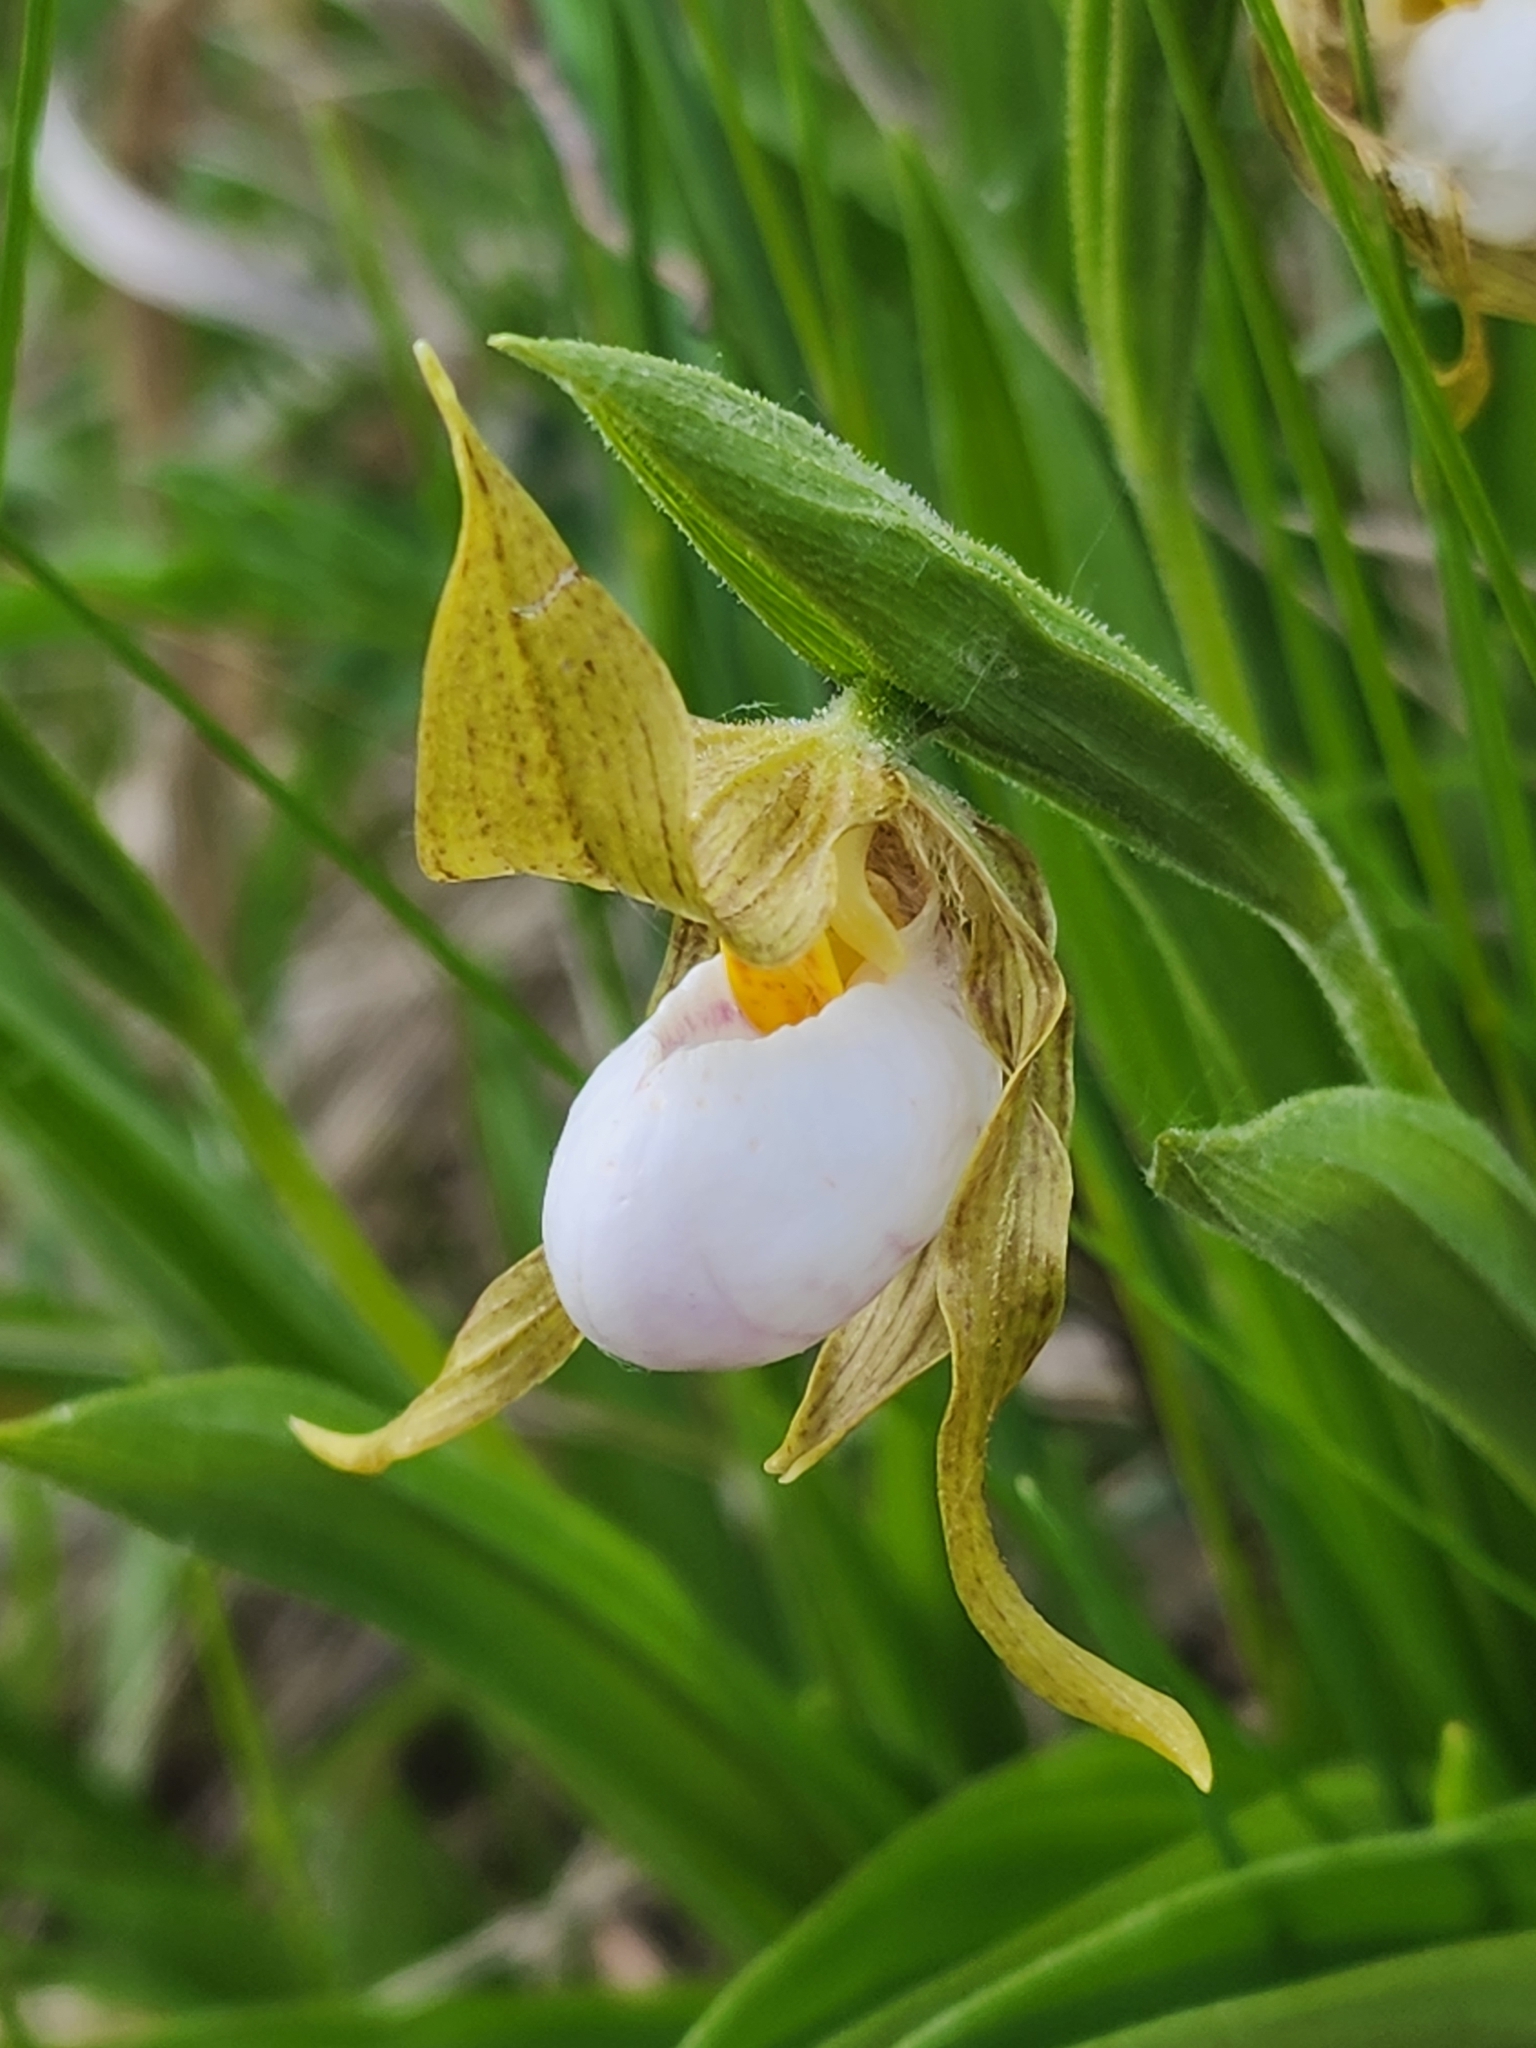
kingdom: Plantae
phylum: Tracheophyta
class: Liliopsida
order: Asparagales
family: Orchidaceae
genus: Cypripedium
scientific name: Cypripedium candidum
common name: White lady's-slipper
